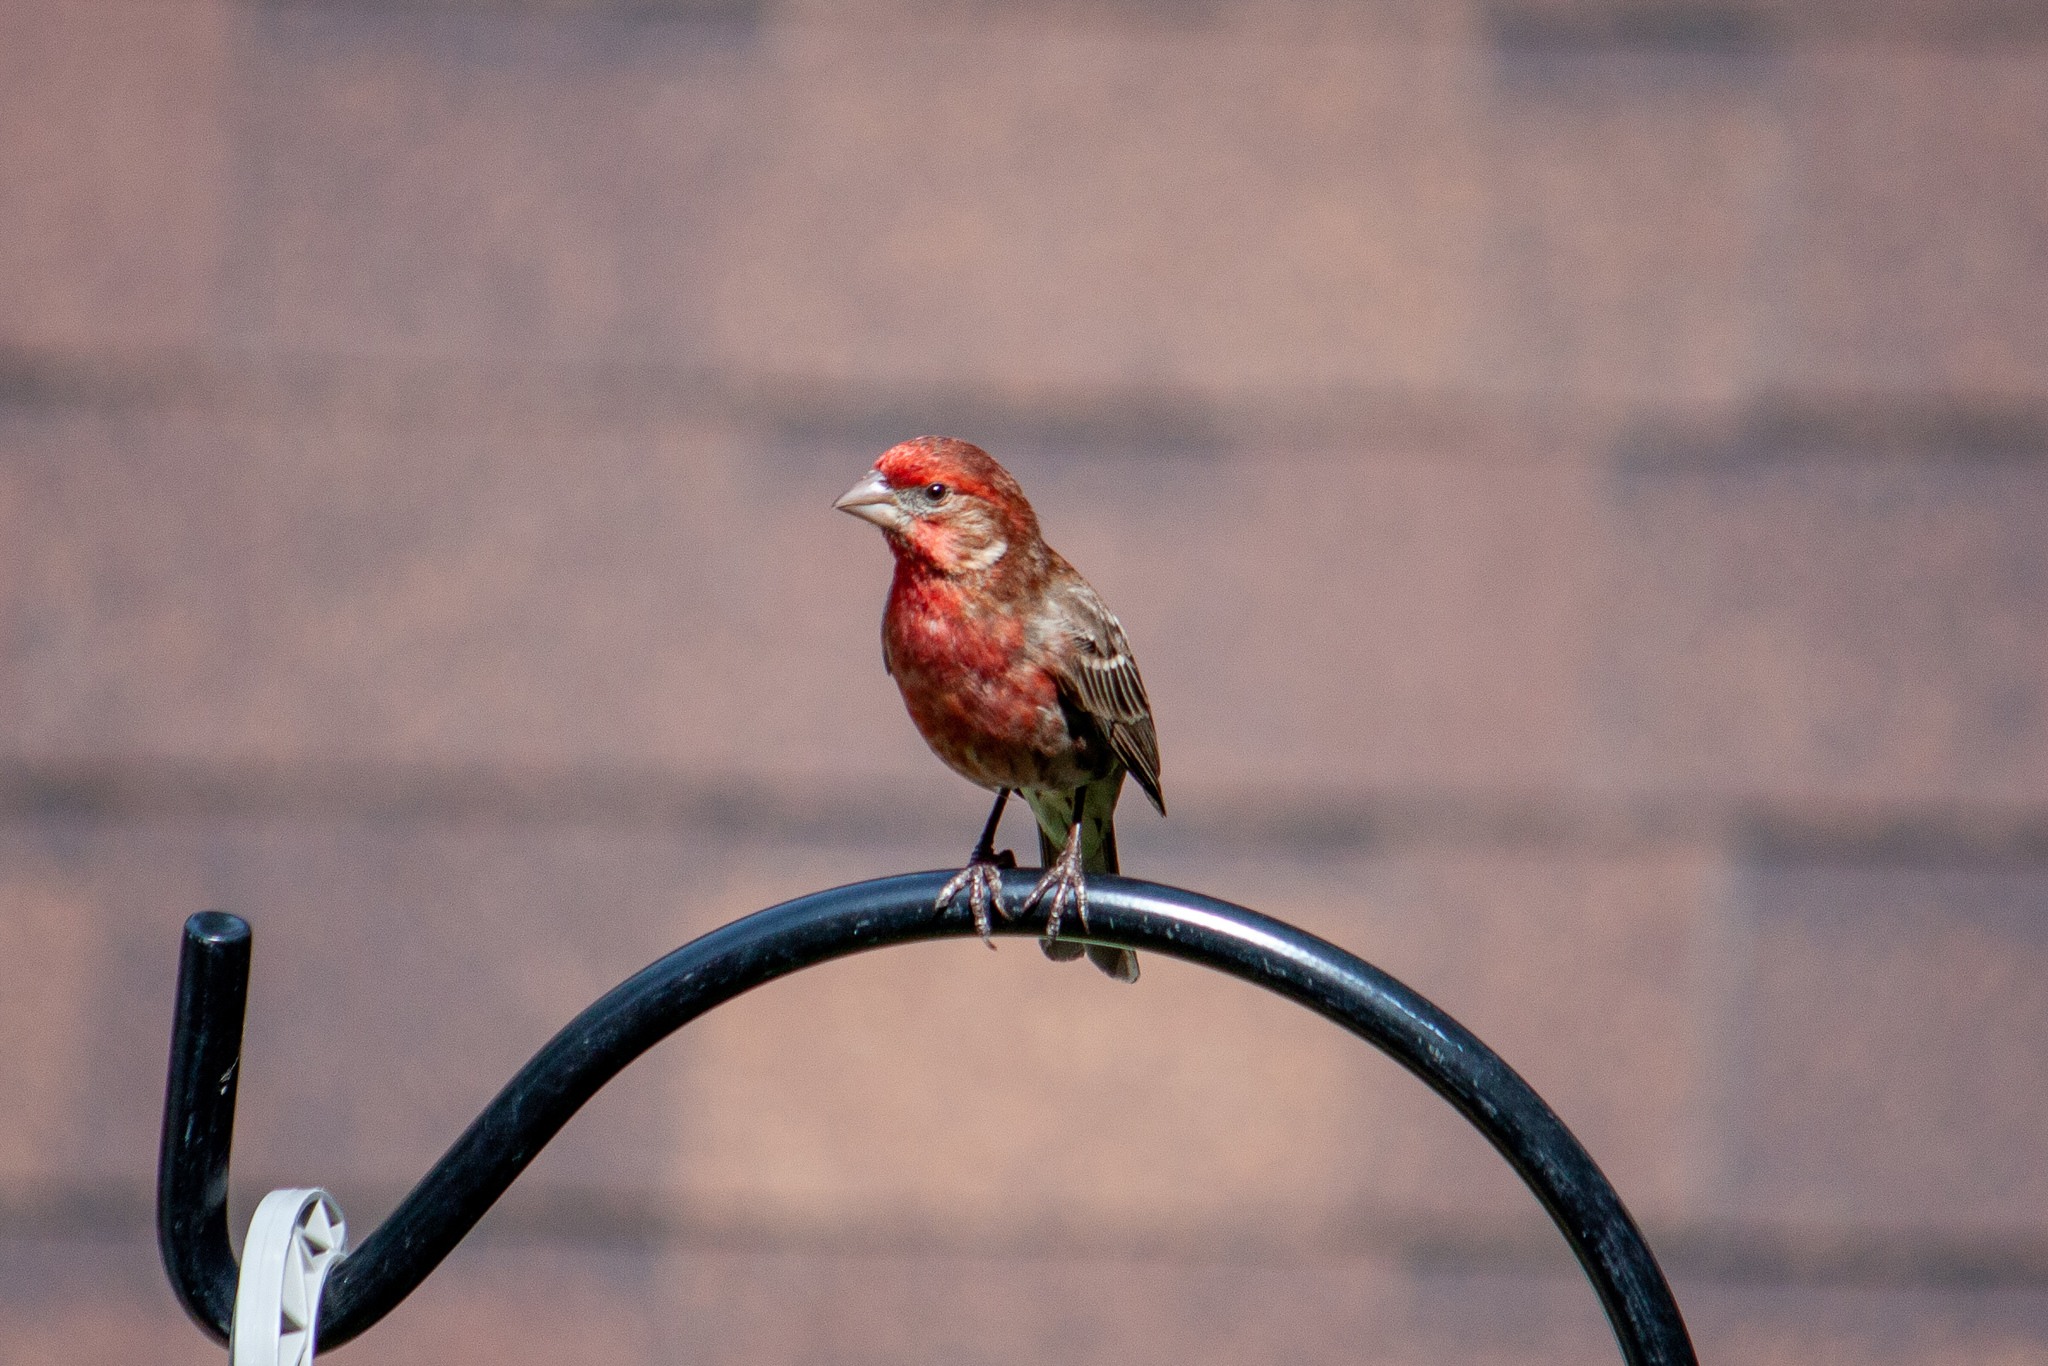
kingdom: Animalia
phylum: Chordata
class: Aves
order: Passeriformes
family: Fringillidae
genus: Haemorhous
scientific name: Haemorhous mexicanus
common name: House finch
